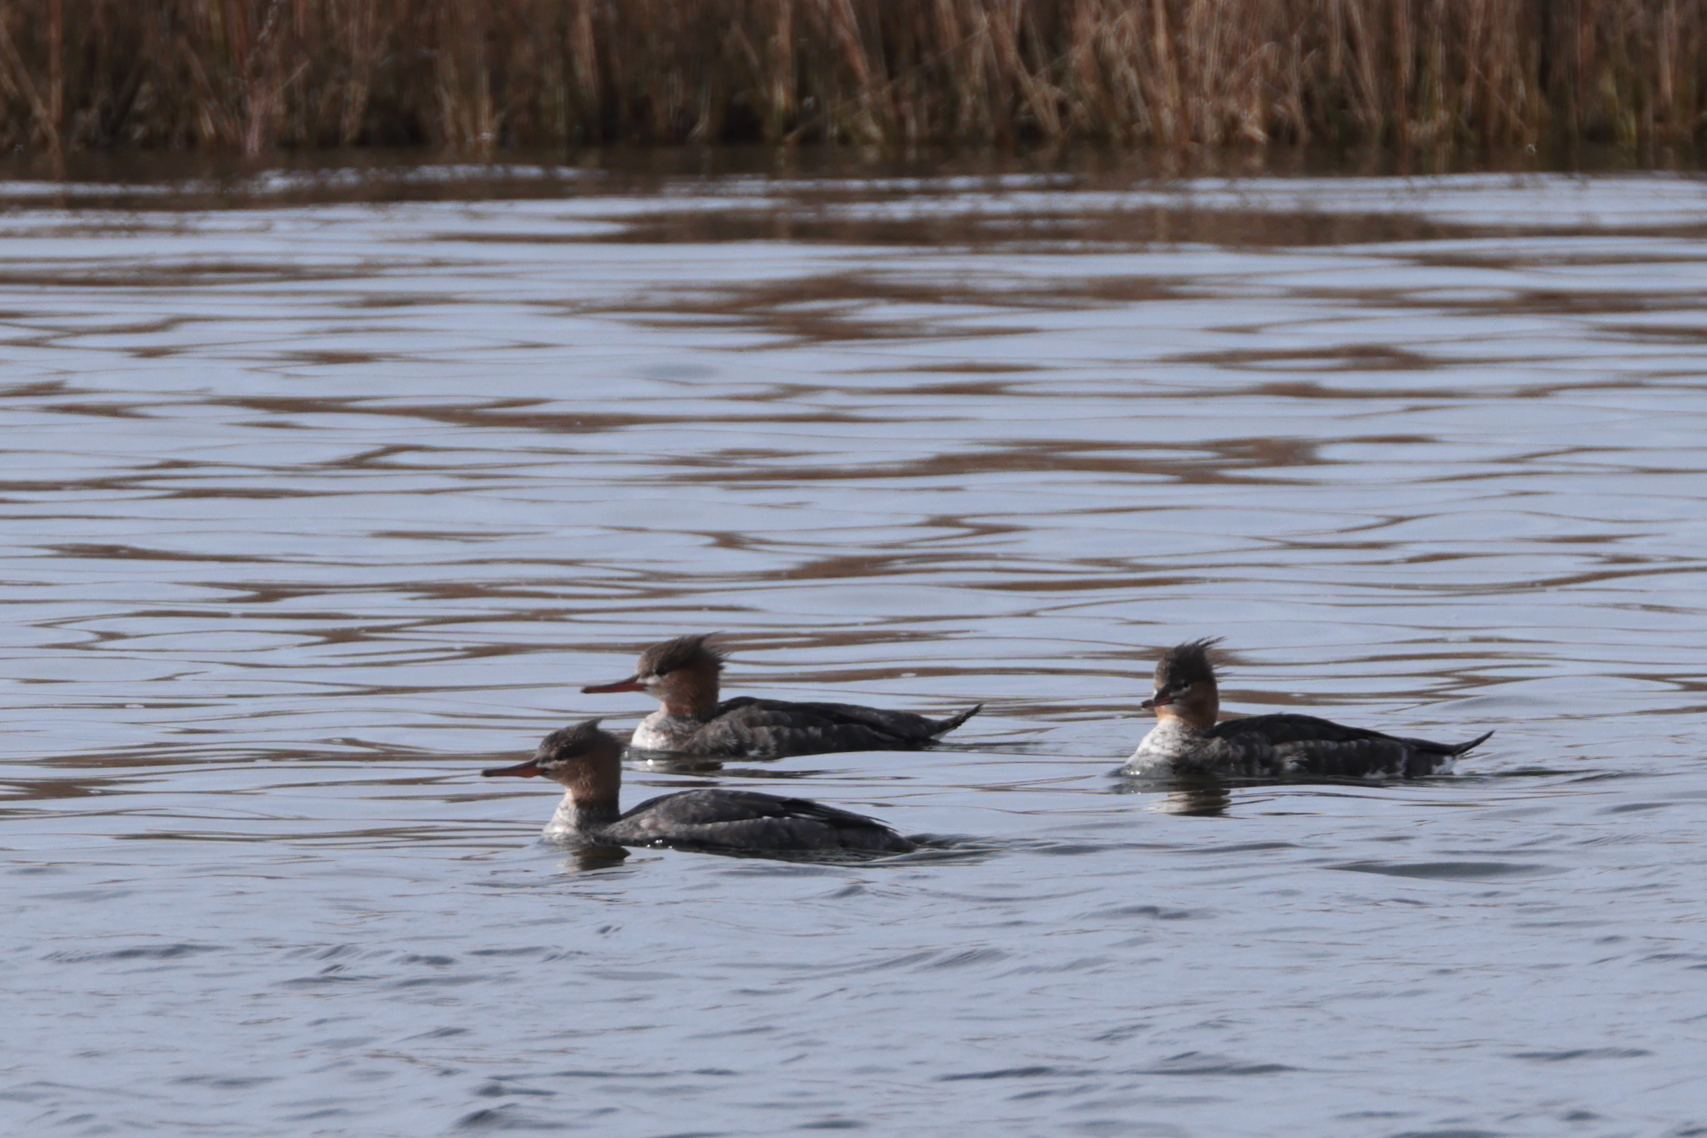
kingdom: Animalia
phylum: Chordata
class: Aves
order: Anseriformes
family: Anatidae
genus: Mergus
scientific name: Mergus serrator
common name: Red-breasted merganser
